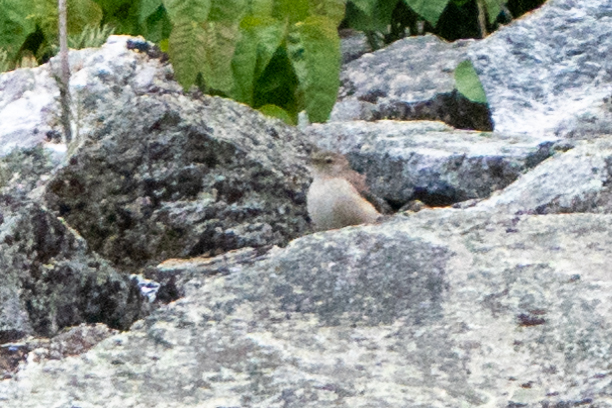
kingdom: Animalia
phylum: Chordata
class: Aves
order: Passeriformes
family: Troglodytidae
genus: Salpinctes
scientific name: Salpinctes obsoletus
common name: Rock wren
